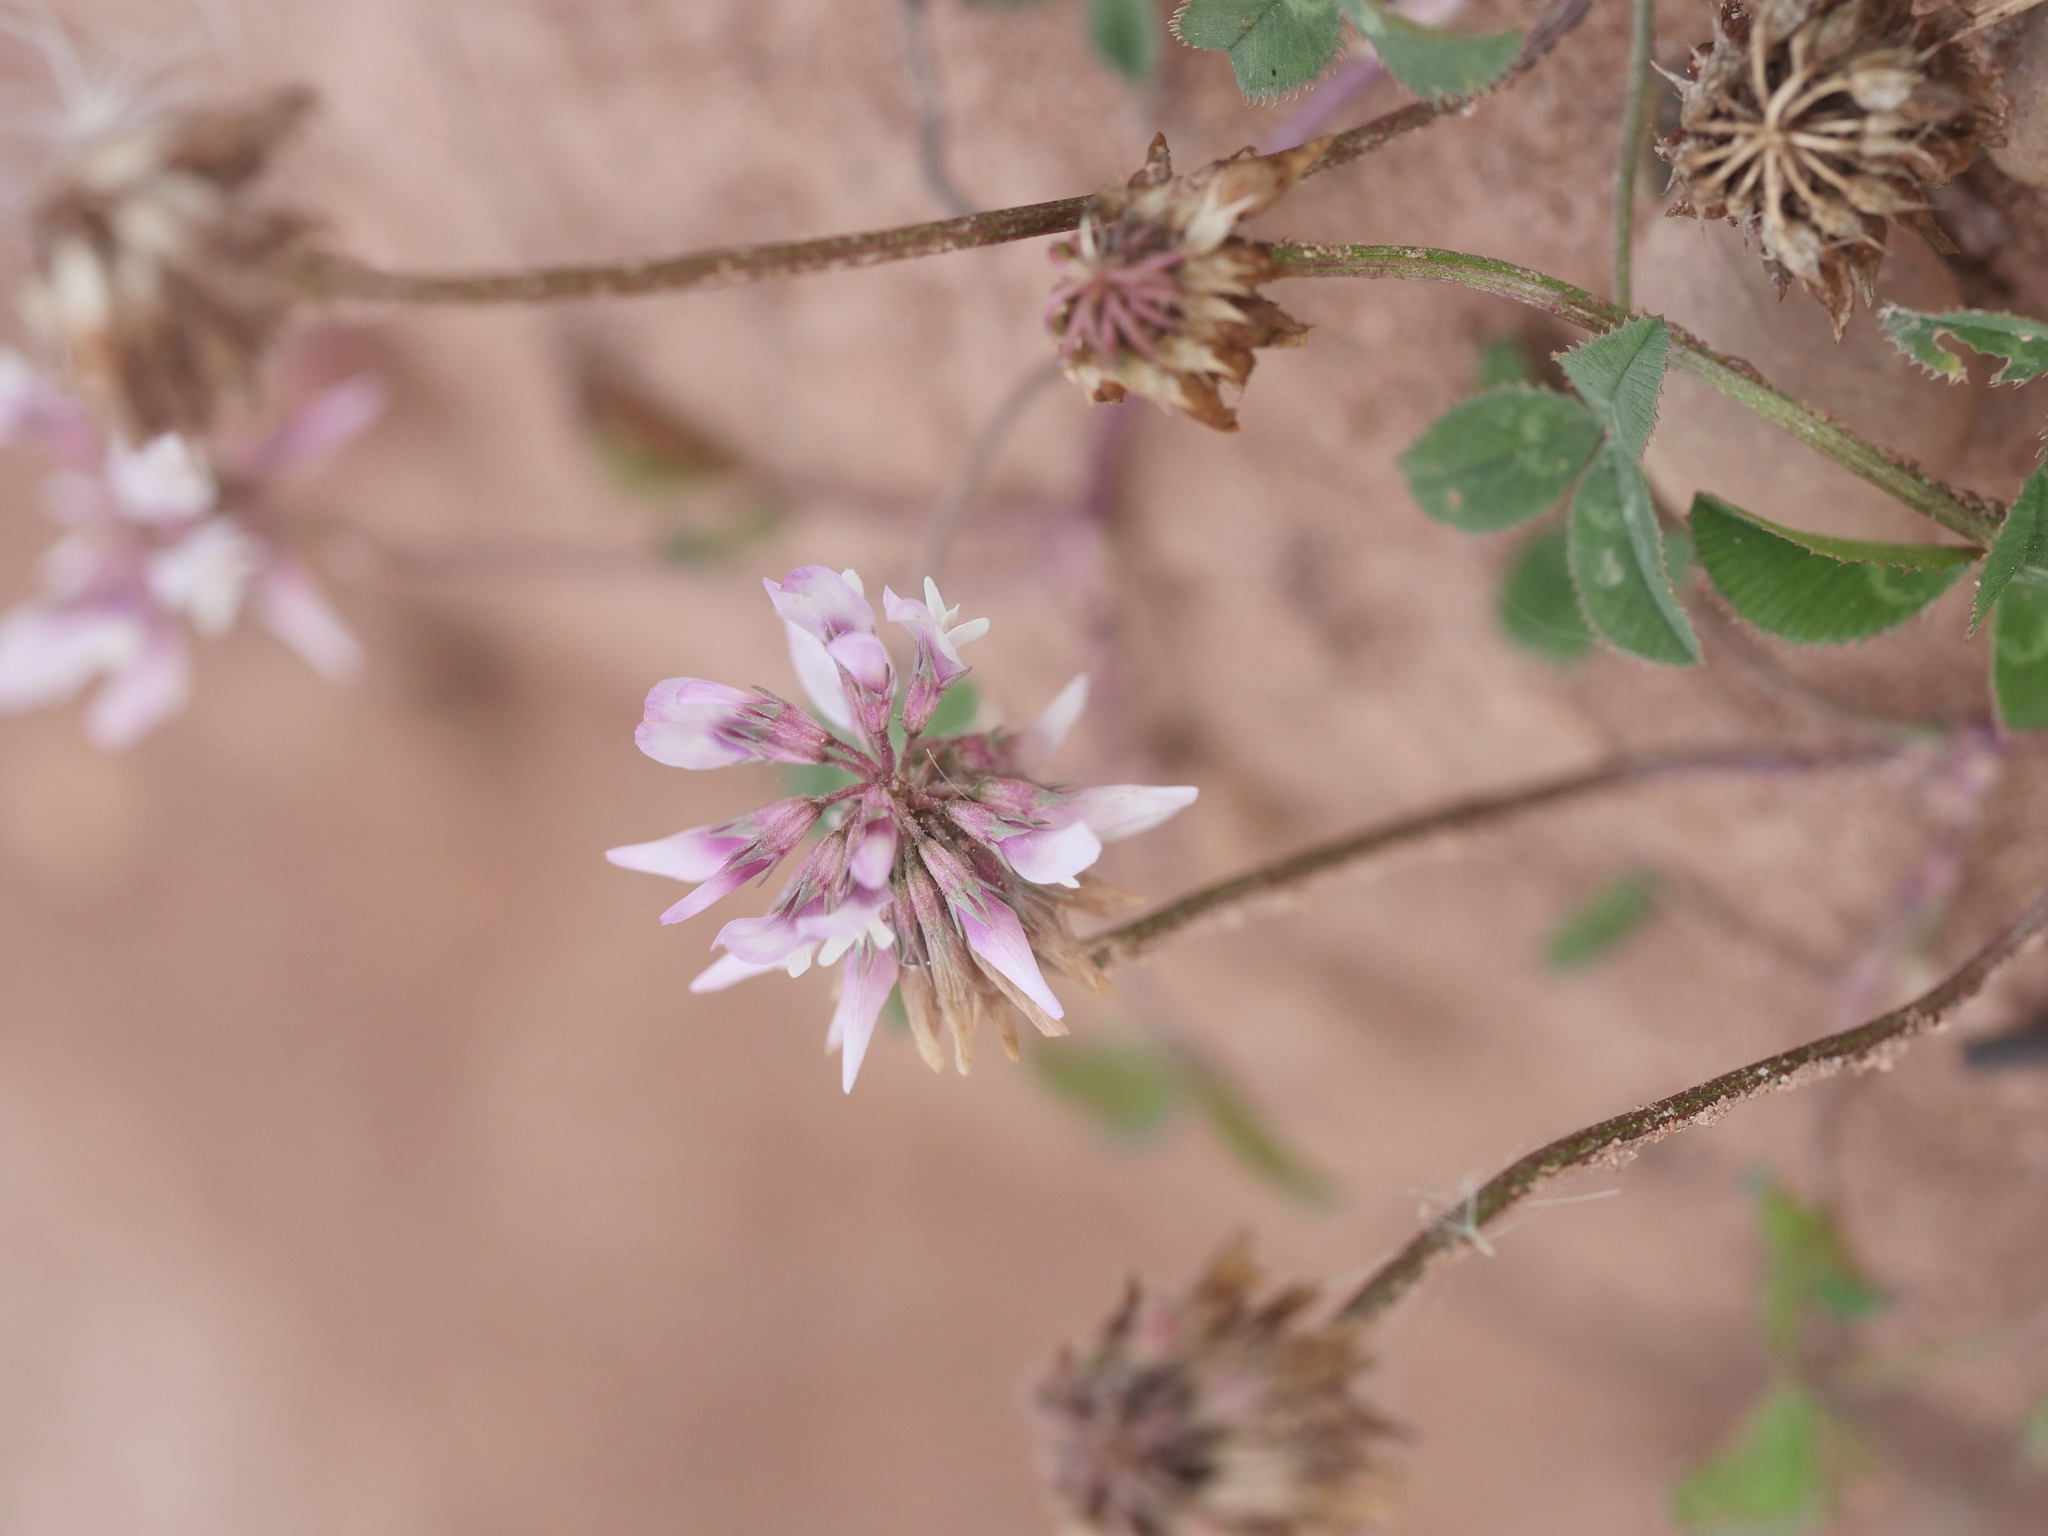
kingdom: Plantae
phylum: Tracheophyta
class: Magnoliopsida
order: Fabales
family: Fabaceae
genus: Trifolium
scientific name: Trifolium hybridum
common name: Alsike clover
